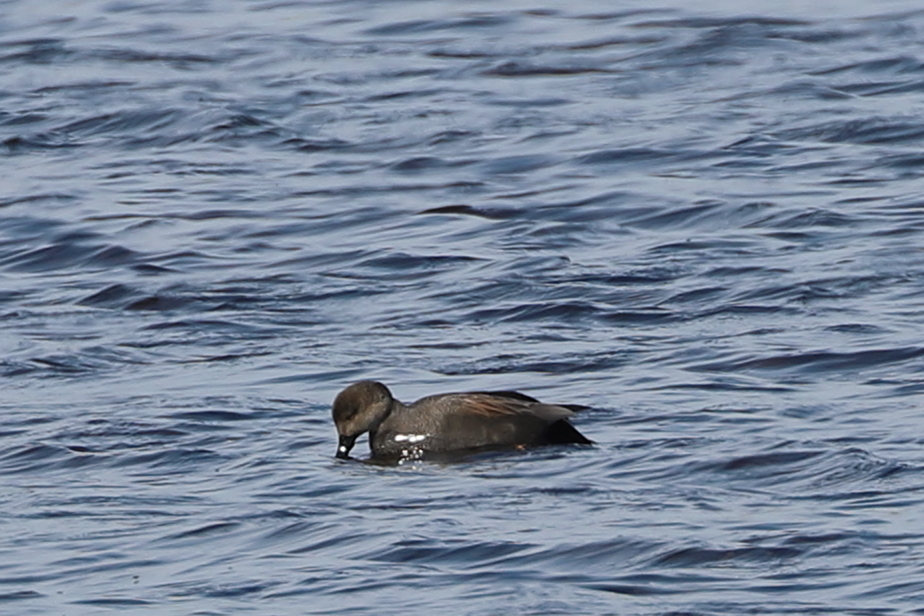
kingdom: Animalia
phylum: Chordata
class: Aves
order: Anseriformes
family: Anatidae
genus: Mareca
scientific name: Mareca strepera
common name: Gadwall
